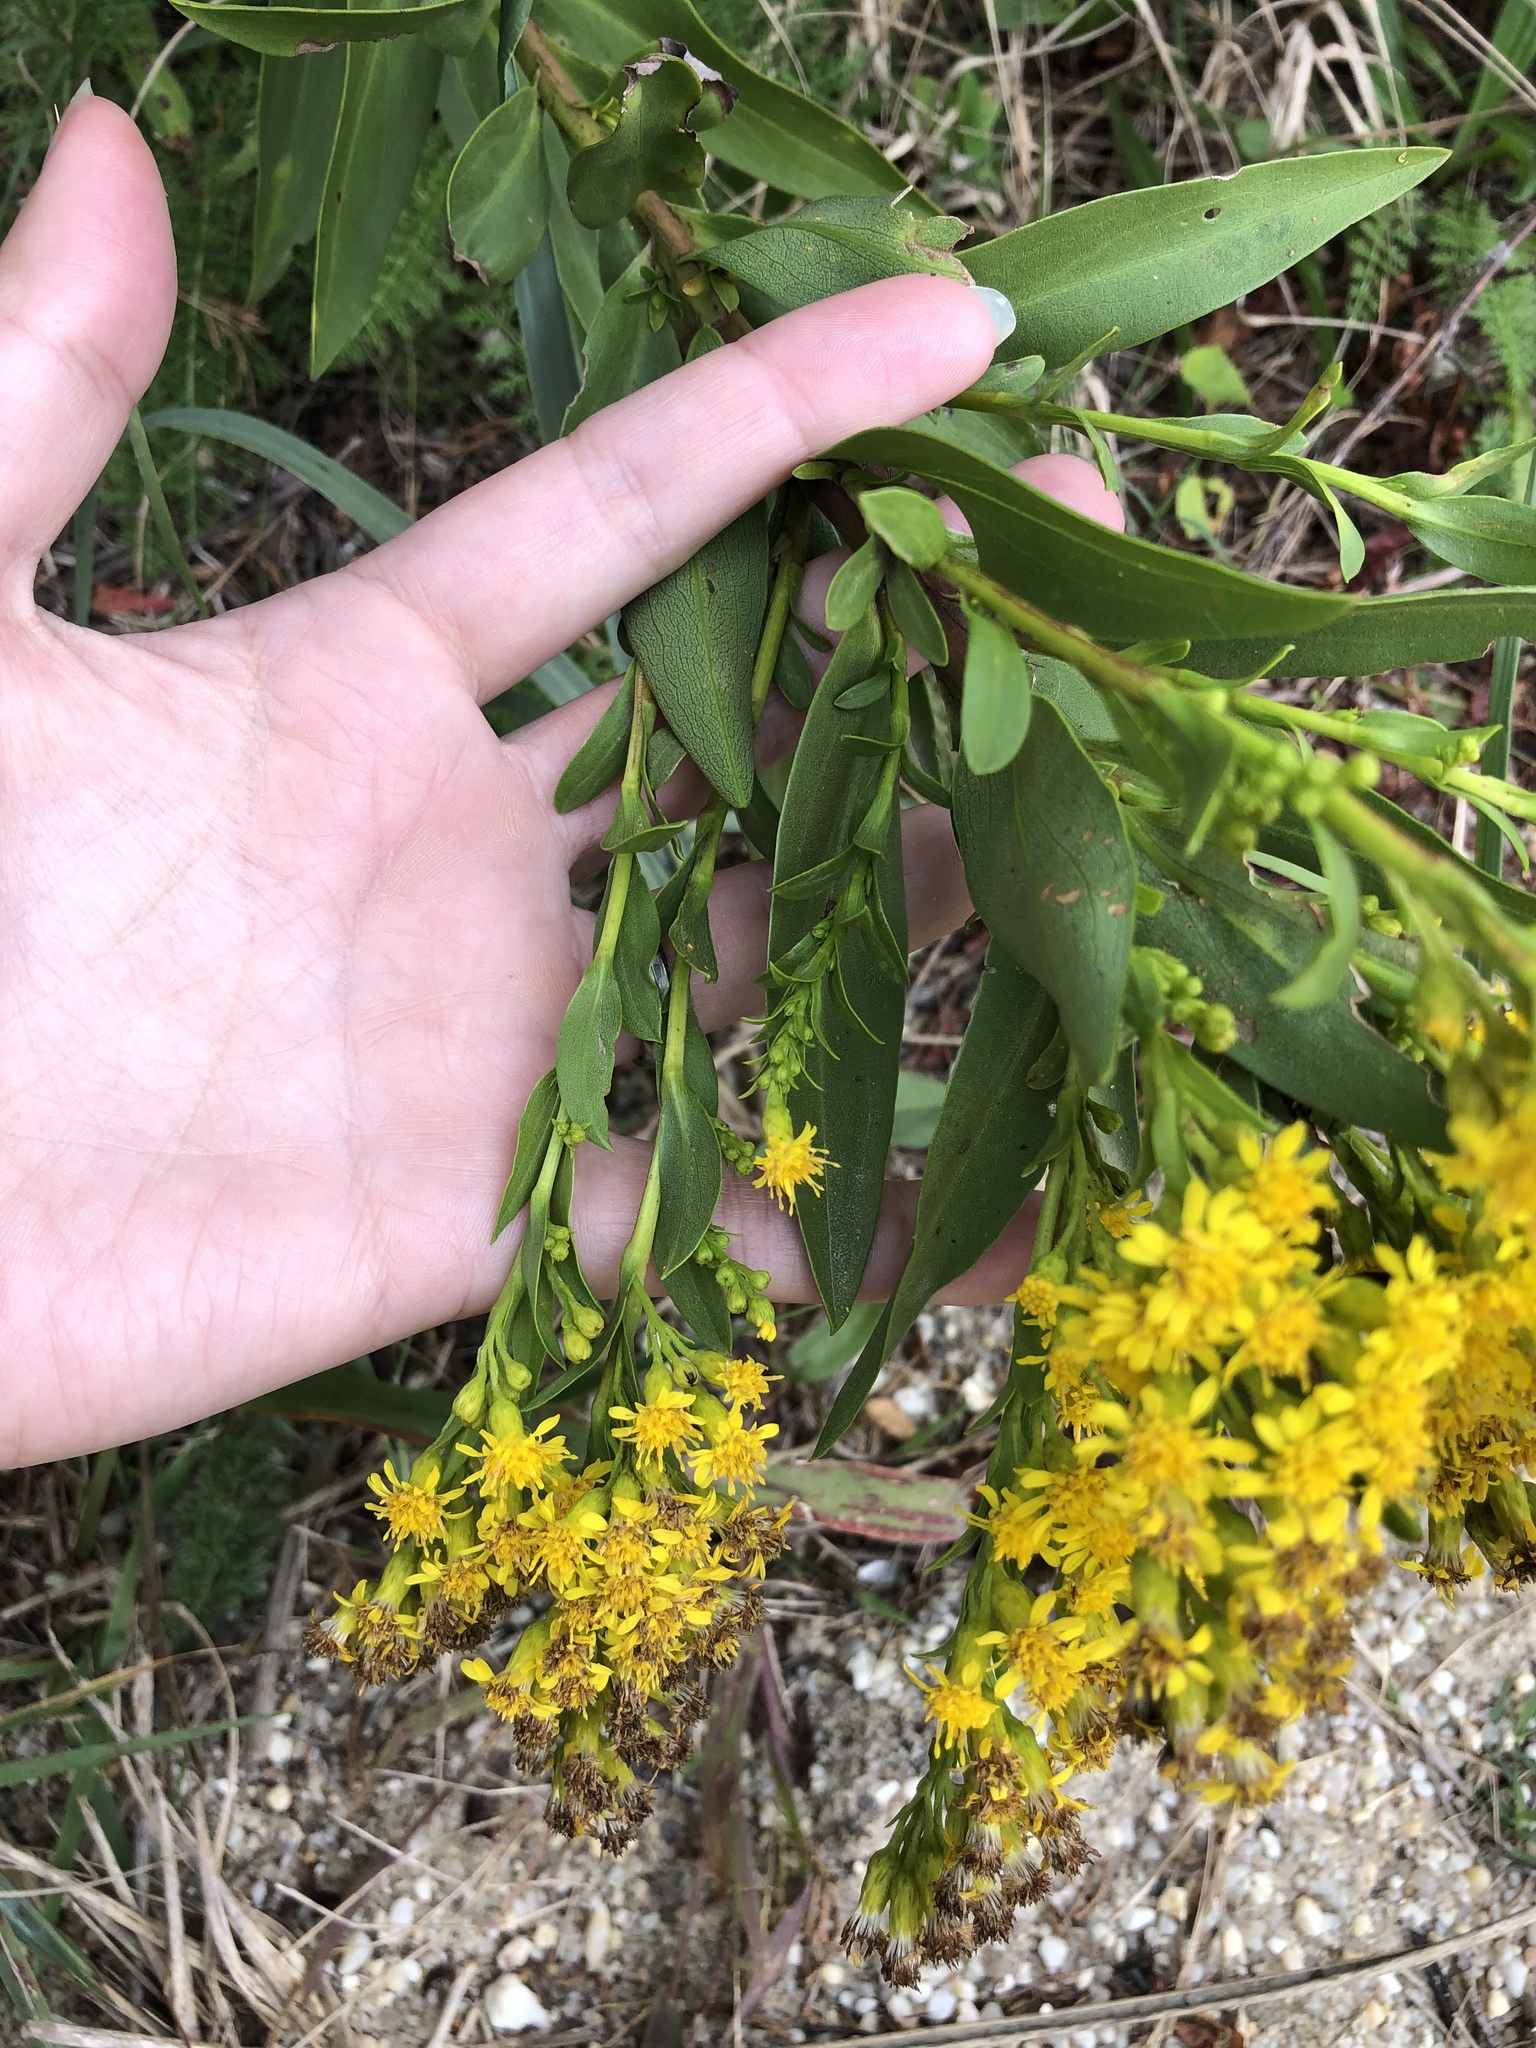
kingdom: Plantae
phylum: Tracheophyta
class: Magnoliopsida
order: Asterales
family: Asteraceae
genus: Solidago
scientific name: Solidago sempervirens
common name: Salt-marsh goldenrod
